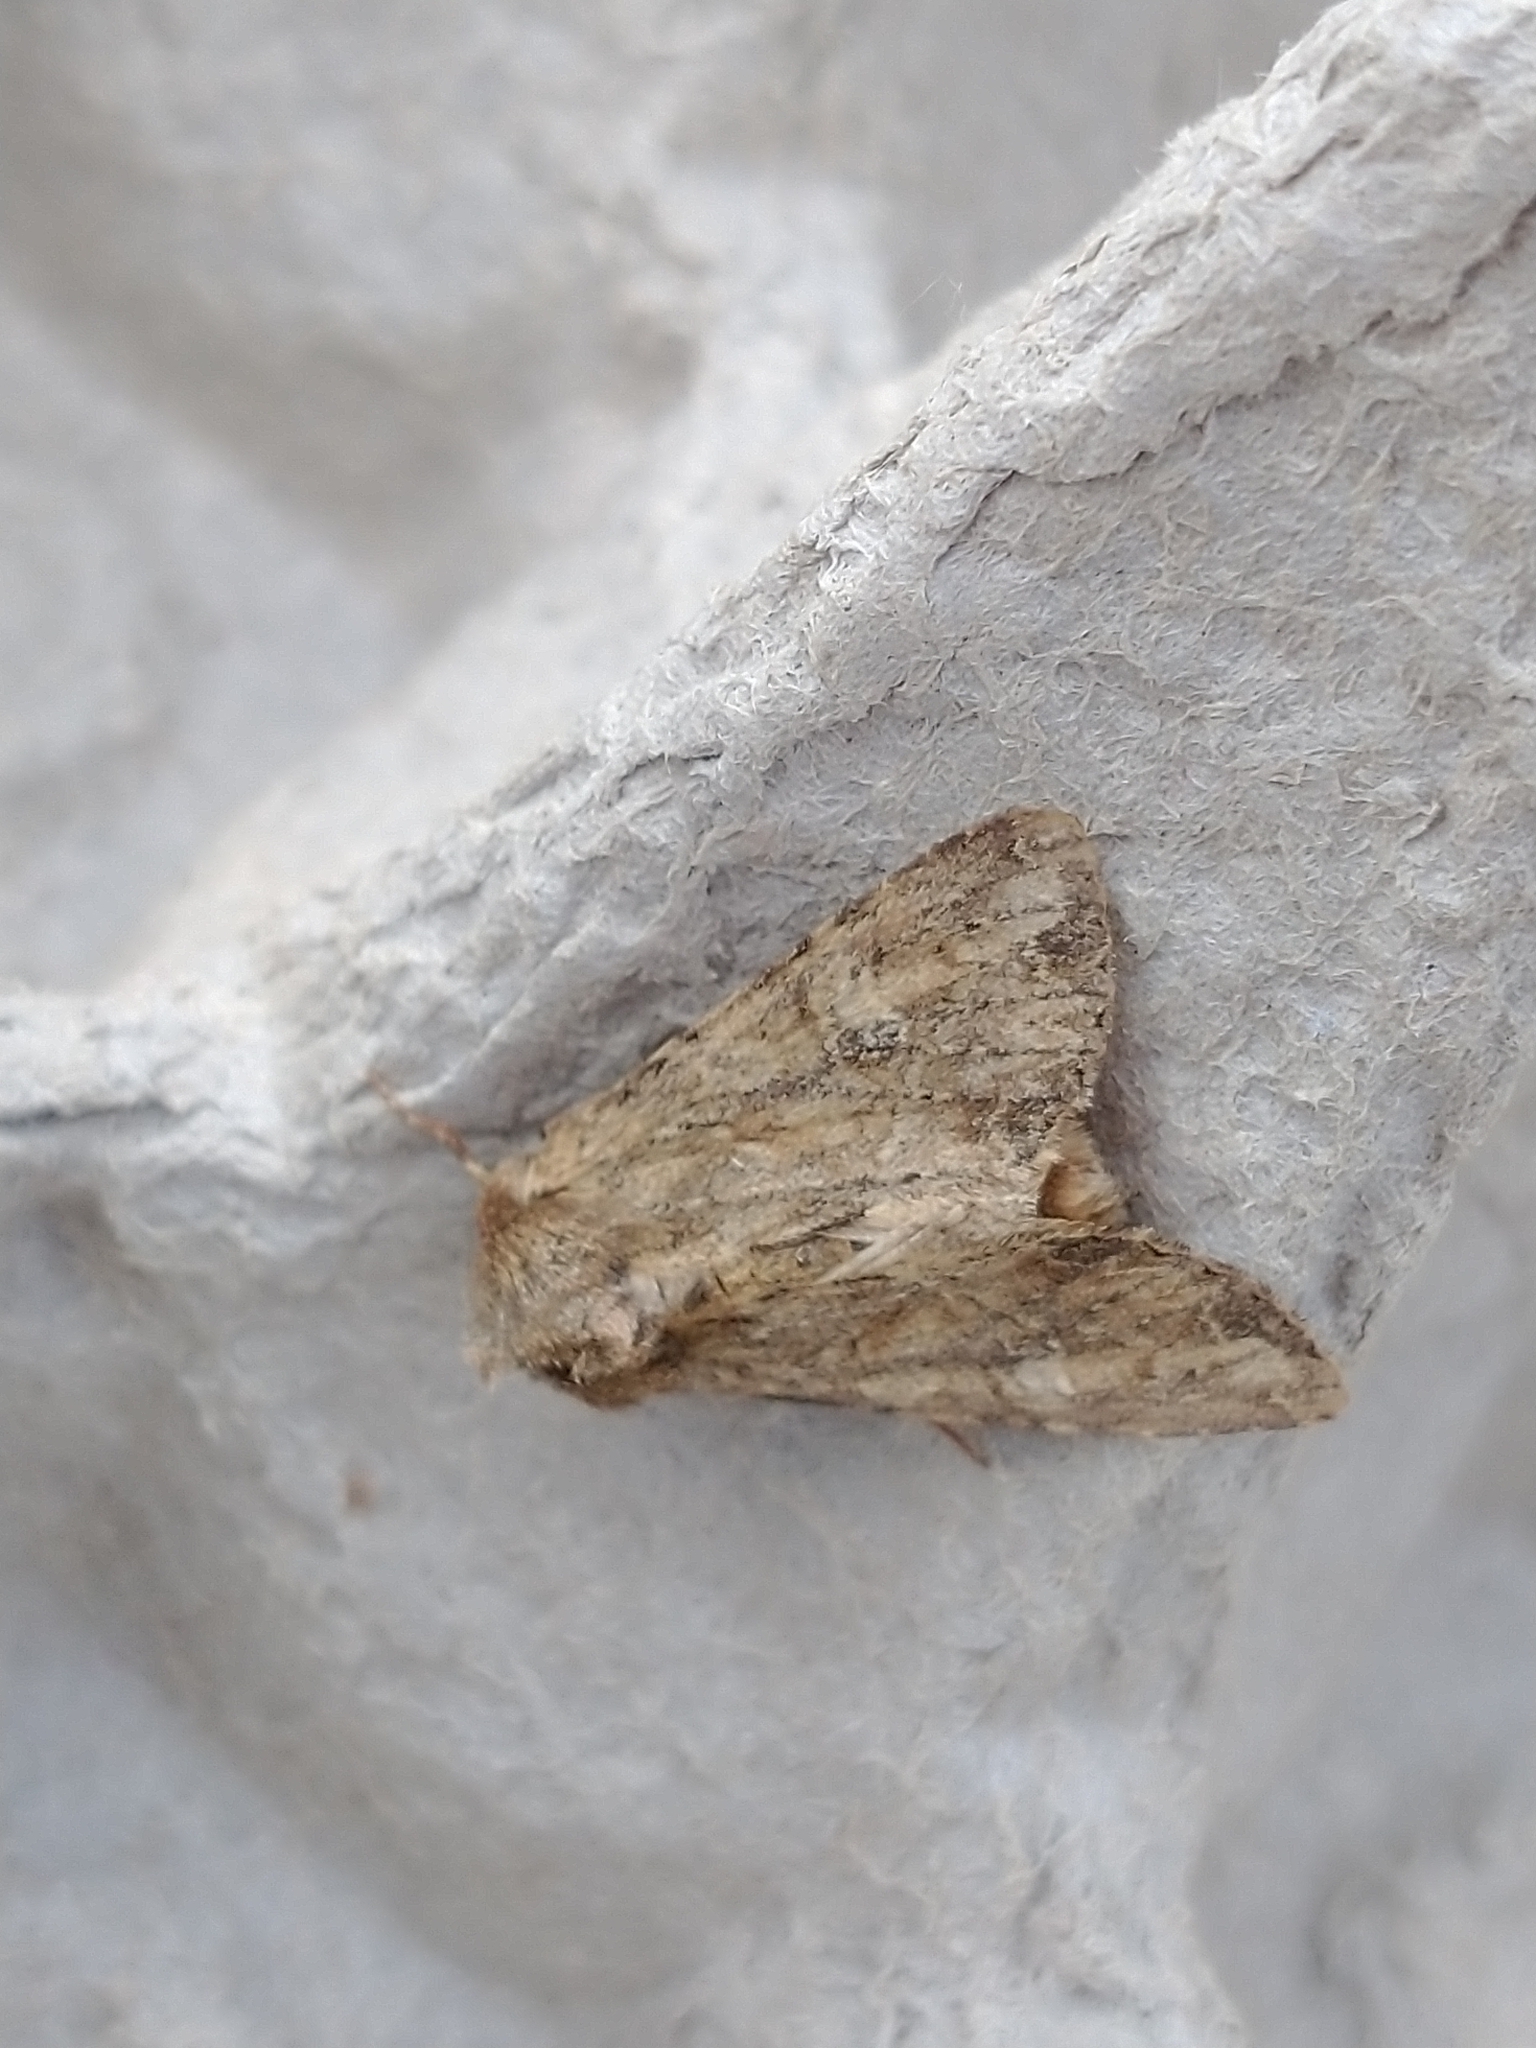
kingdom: Animalia
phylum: Arthropoda
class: Insecta
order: Lepidoptera
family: Noctuidae
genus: Apamea
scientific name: Apamea anceps
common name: Large nutmeg
